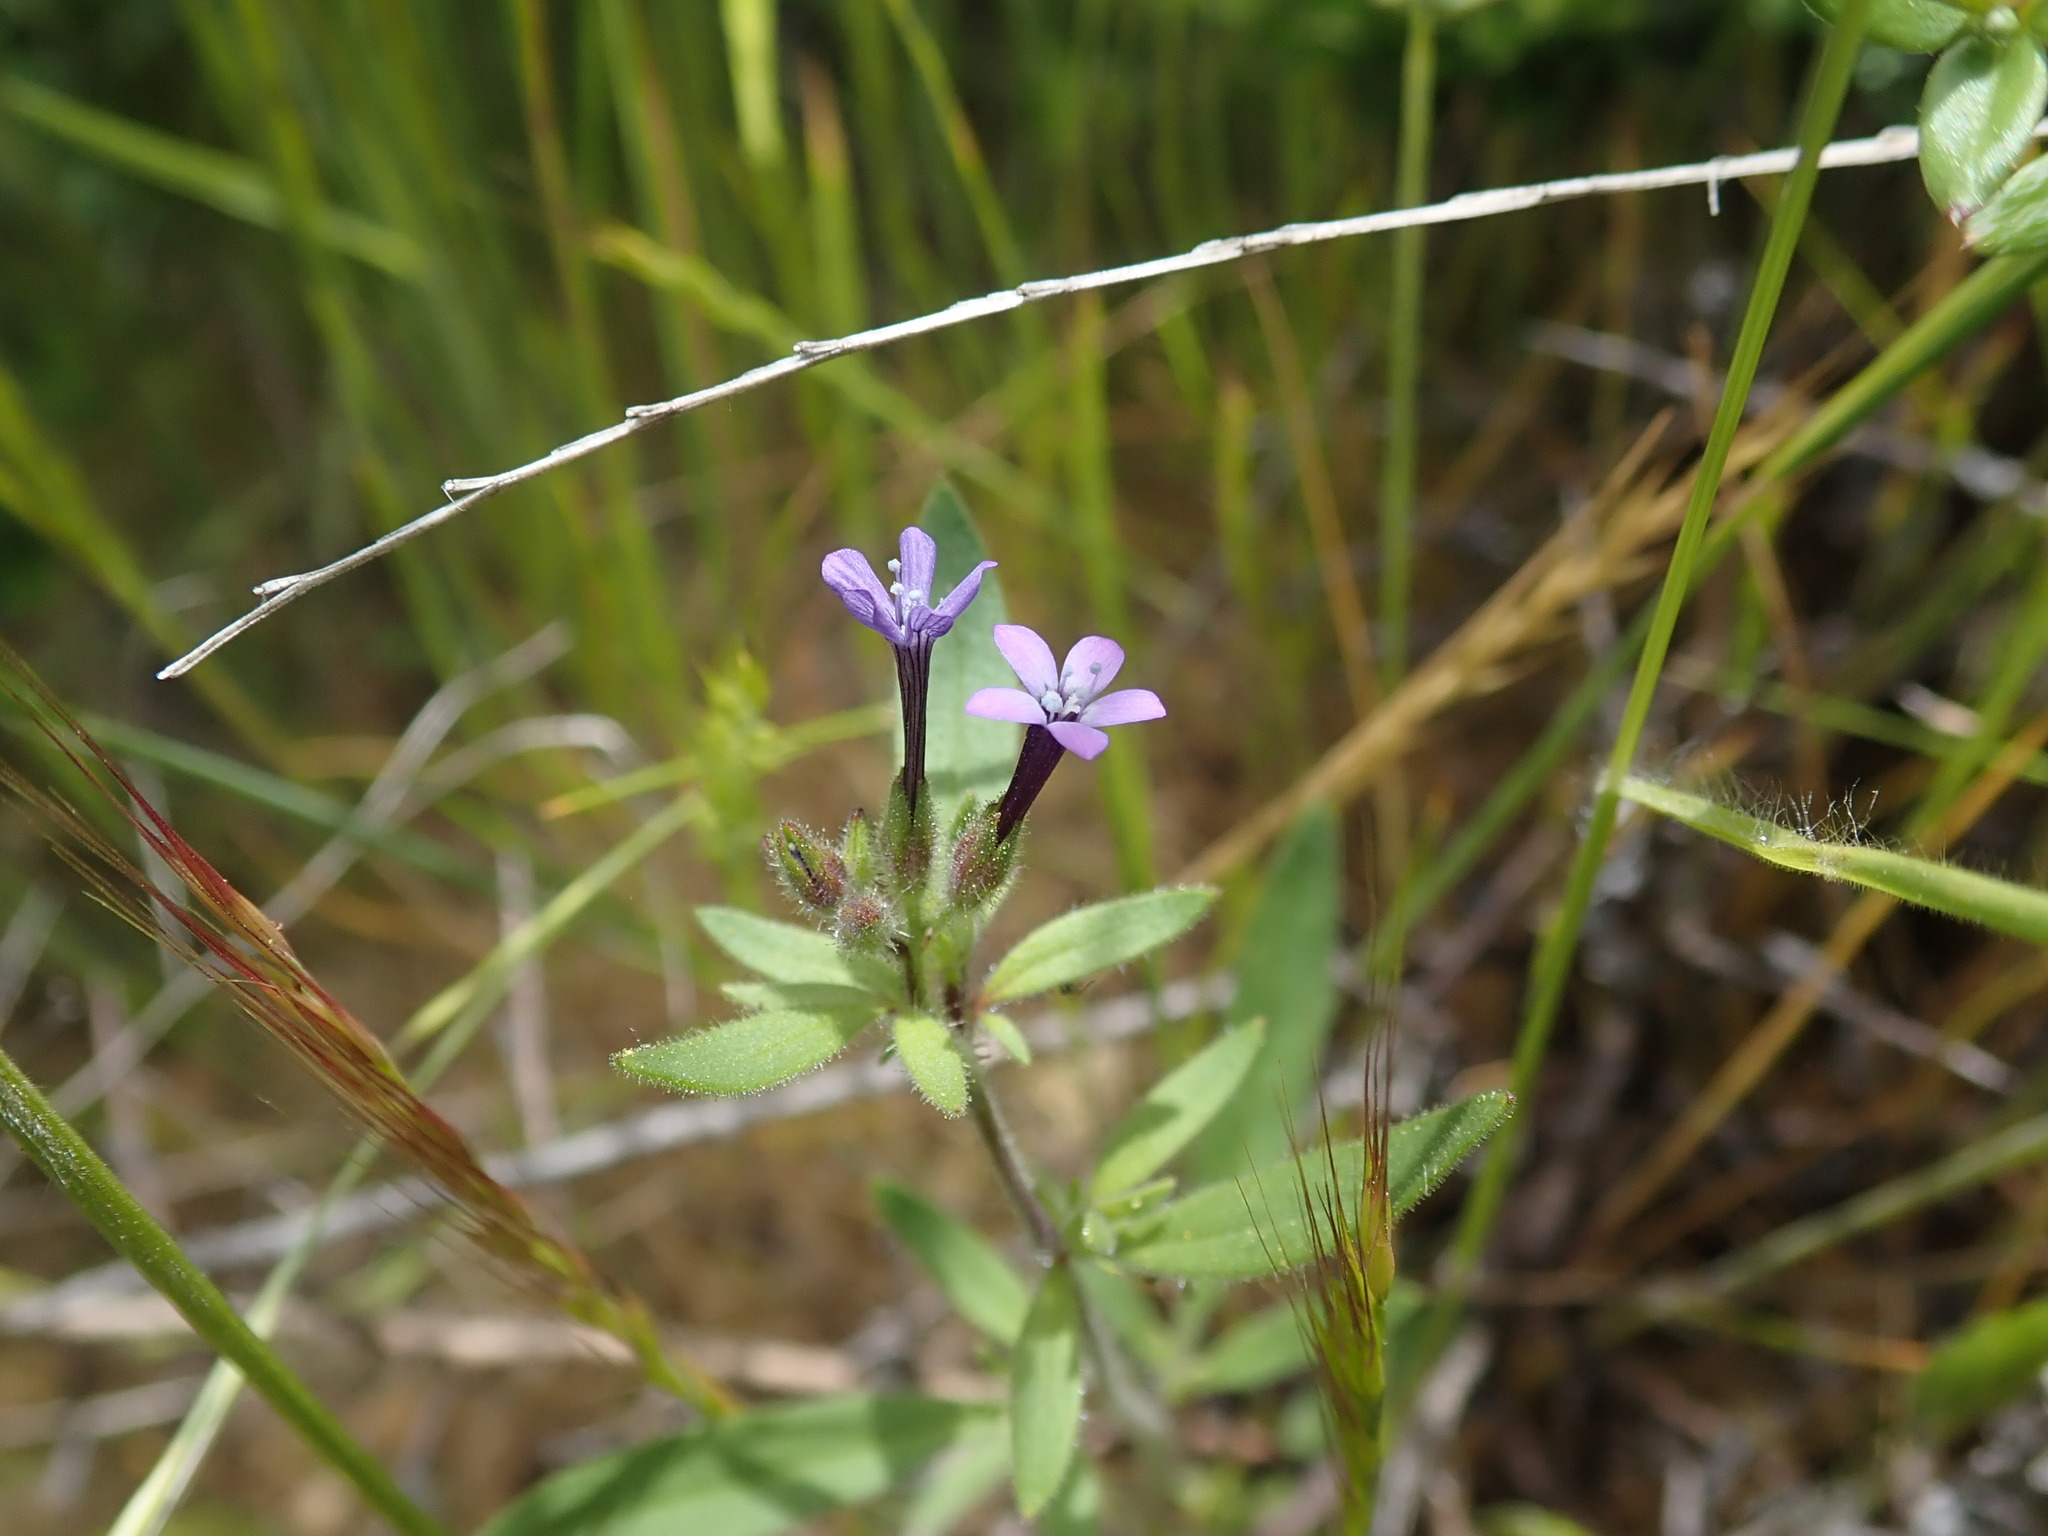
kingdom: Plantae
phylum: Tracheophyta
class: Magnoliopsida
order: Ericales
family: Polemoniaceae
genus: Allophyllum
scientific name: Allophyllum gilioides
